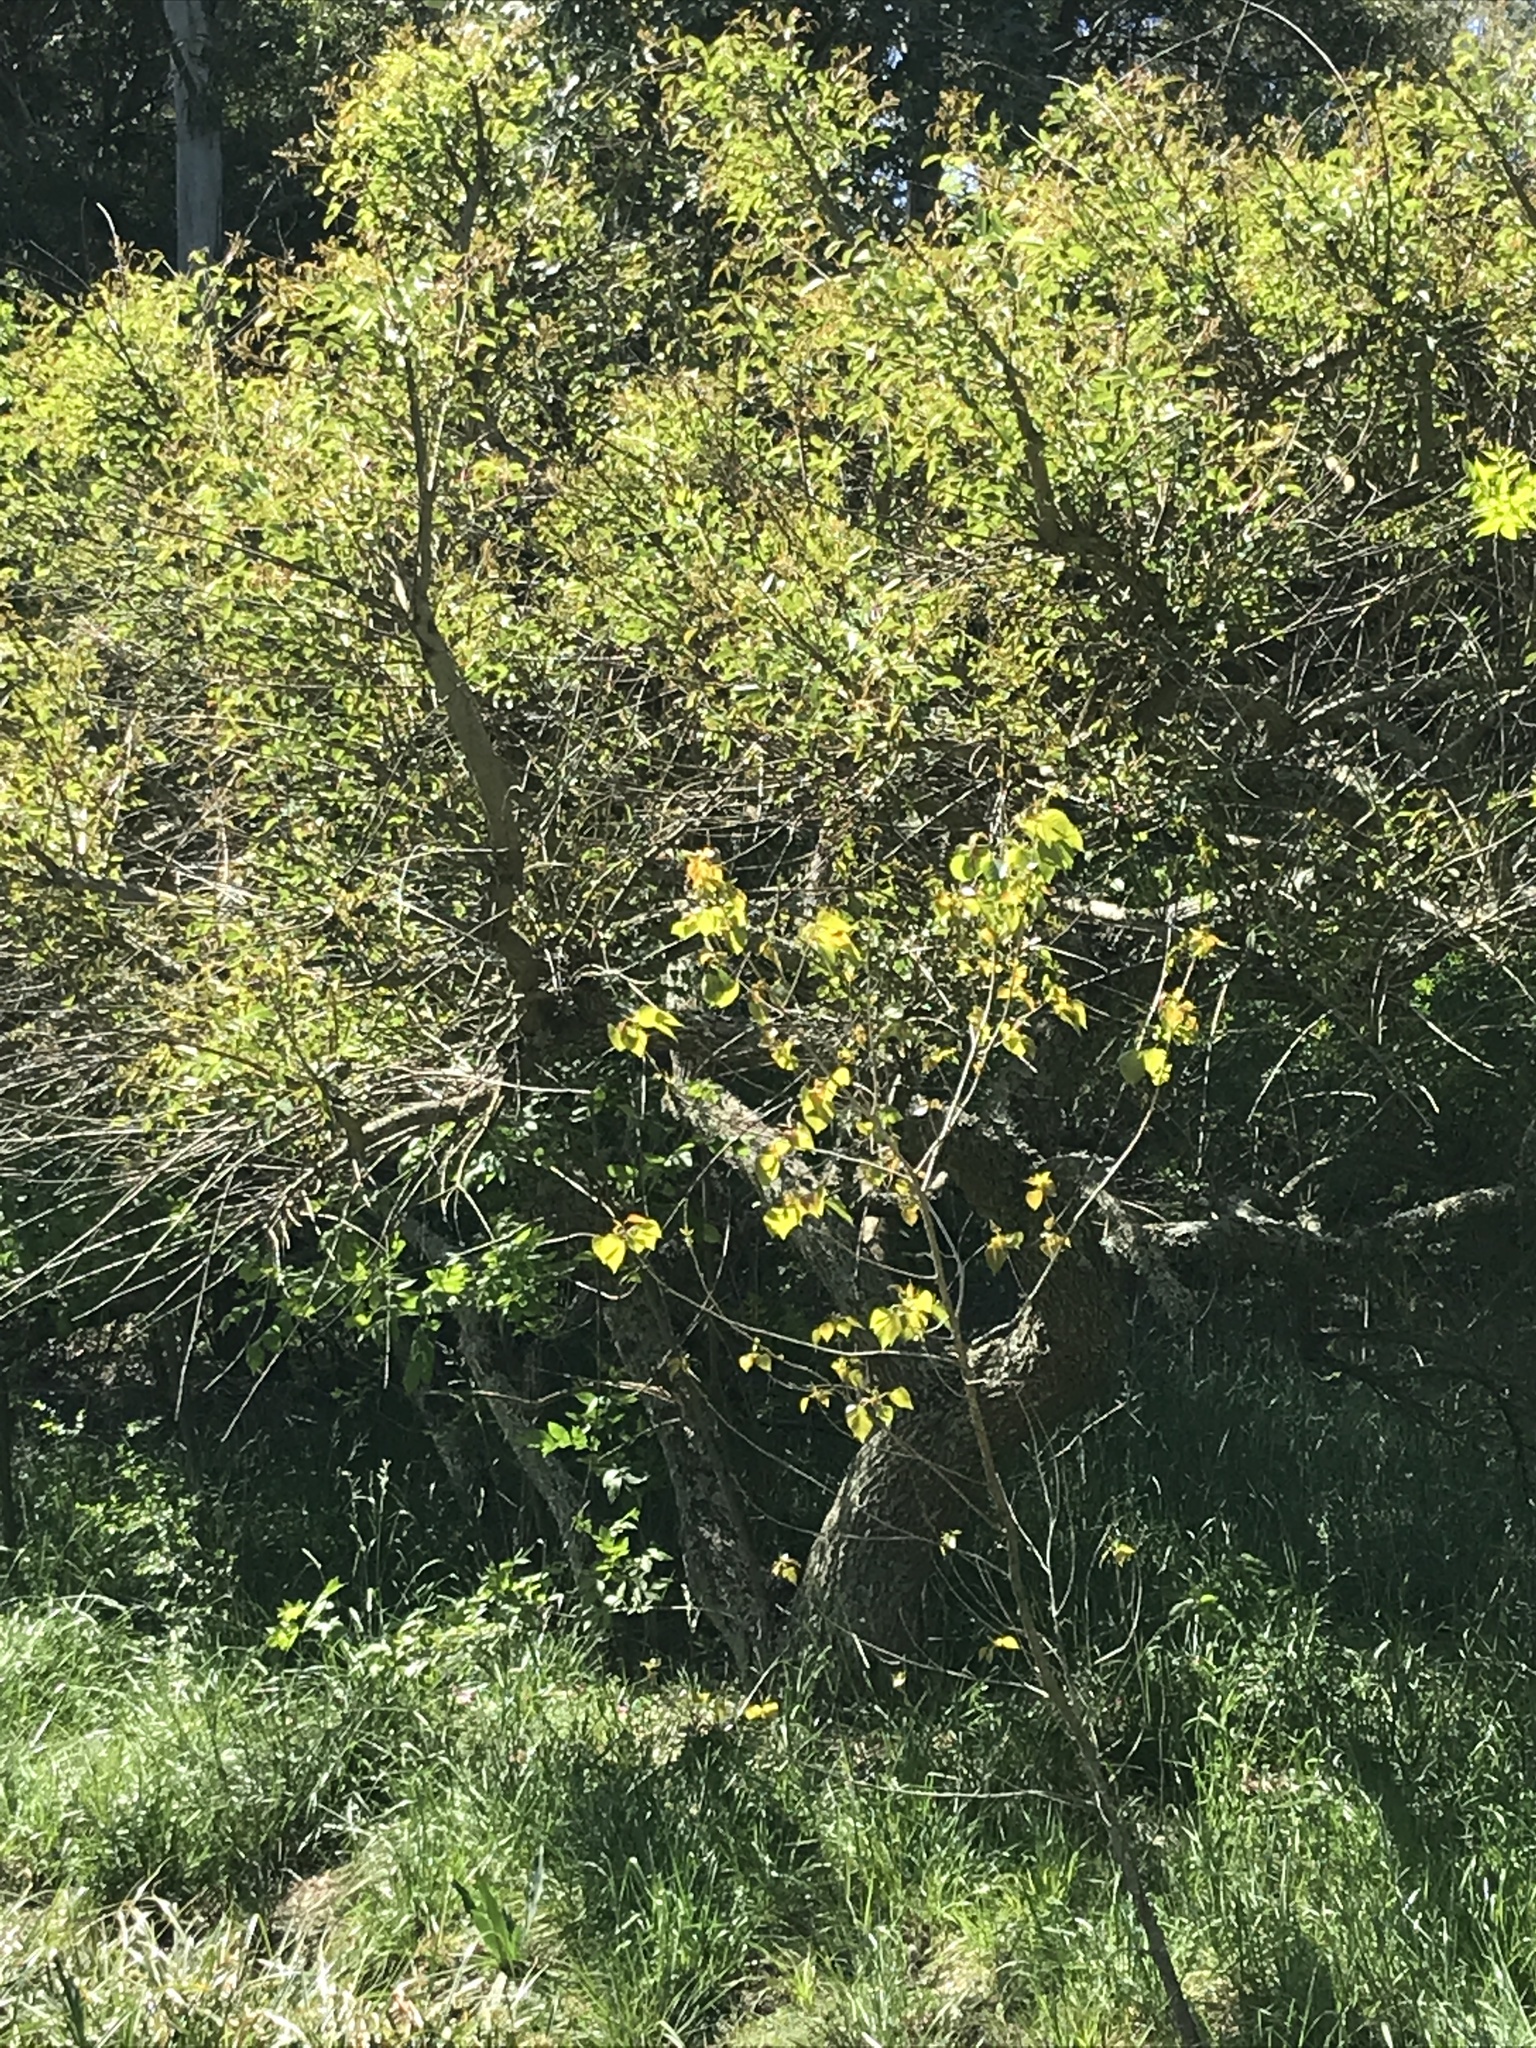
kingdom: Plantae
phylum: Tracheophyta
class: Magnoliopsida
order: Fabales
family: Fabaceae
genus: Erythrina
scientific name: Erythrina crista-galli
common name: Cockspur coral tree
